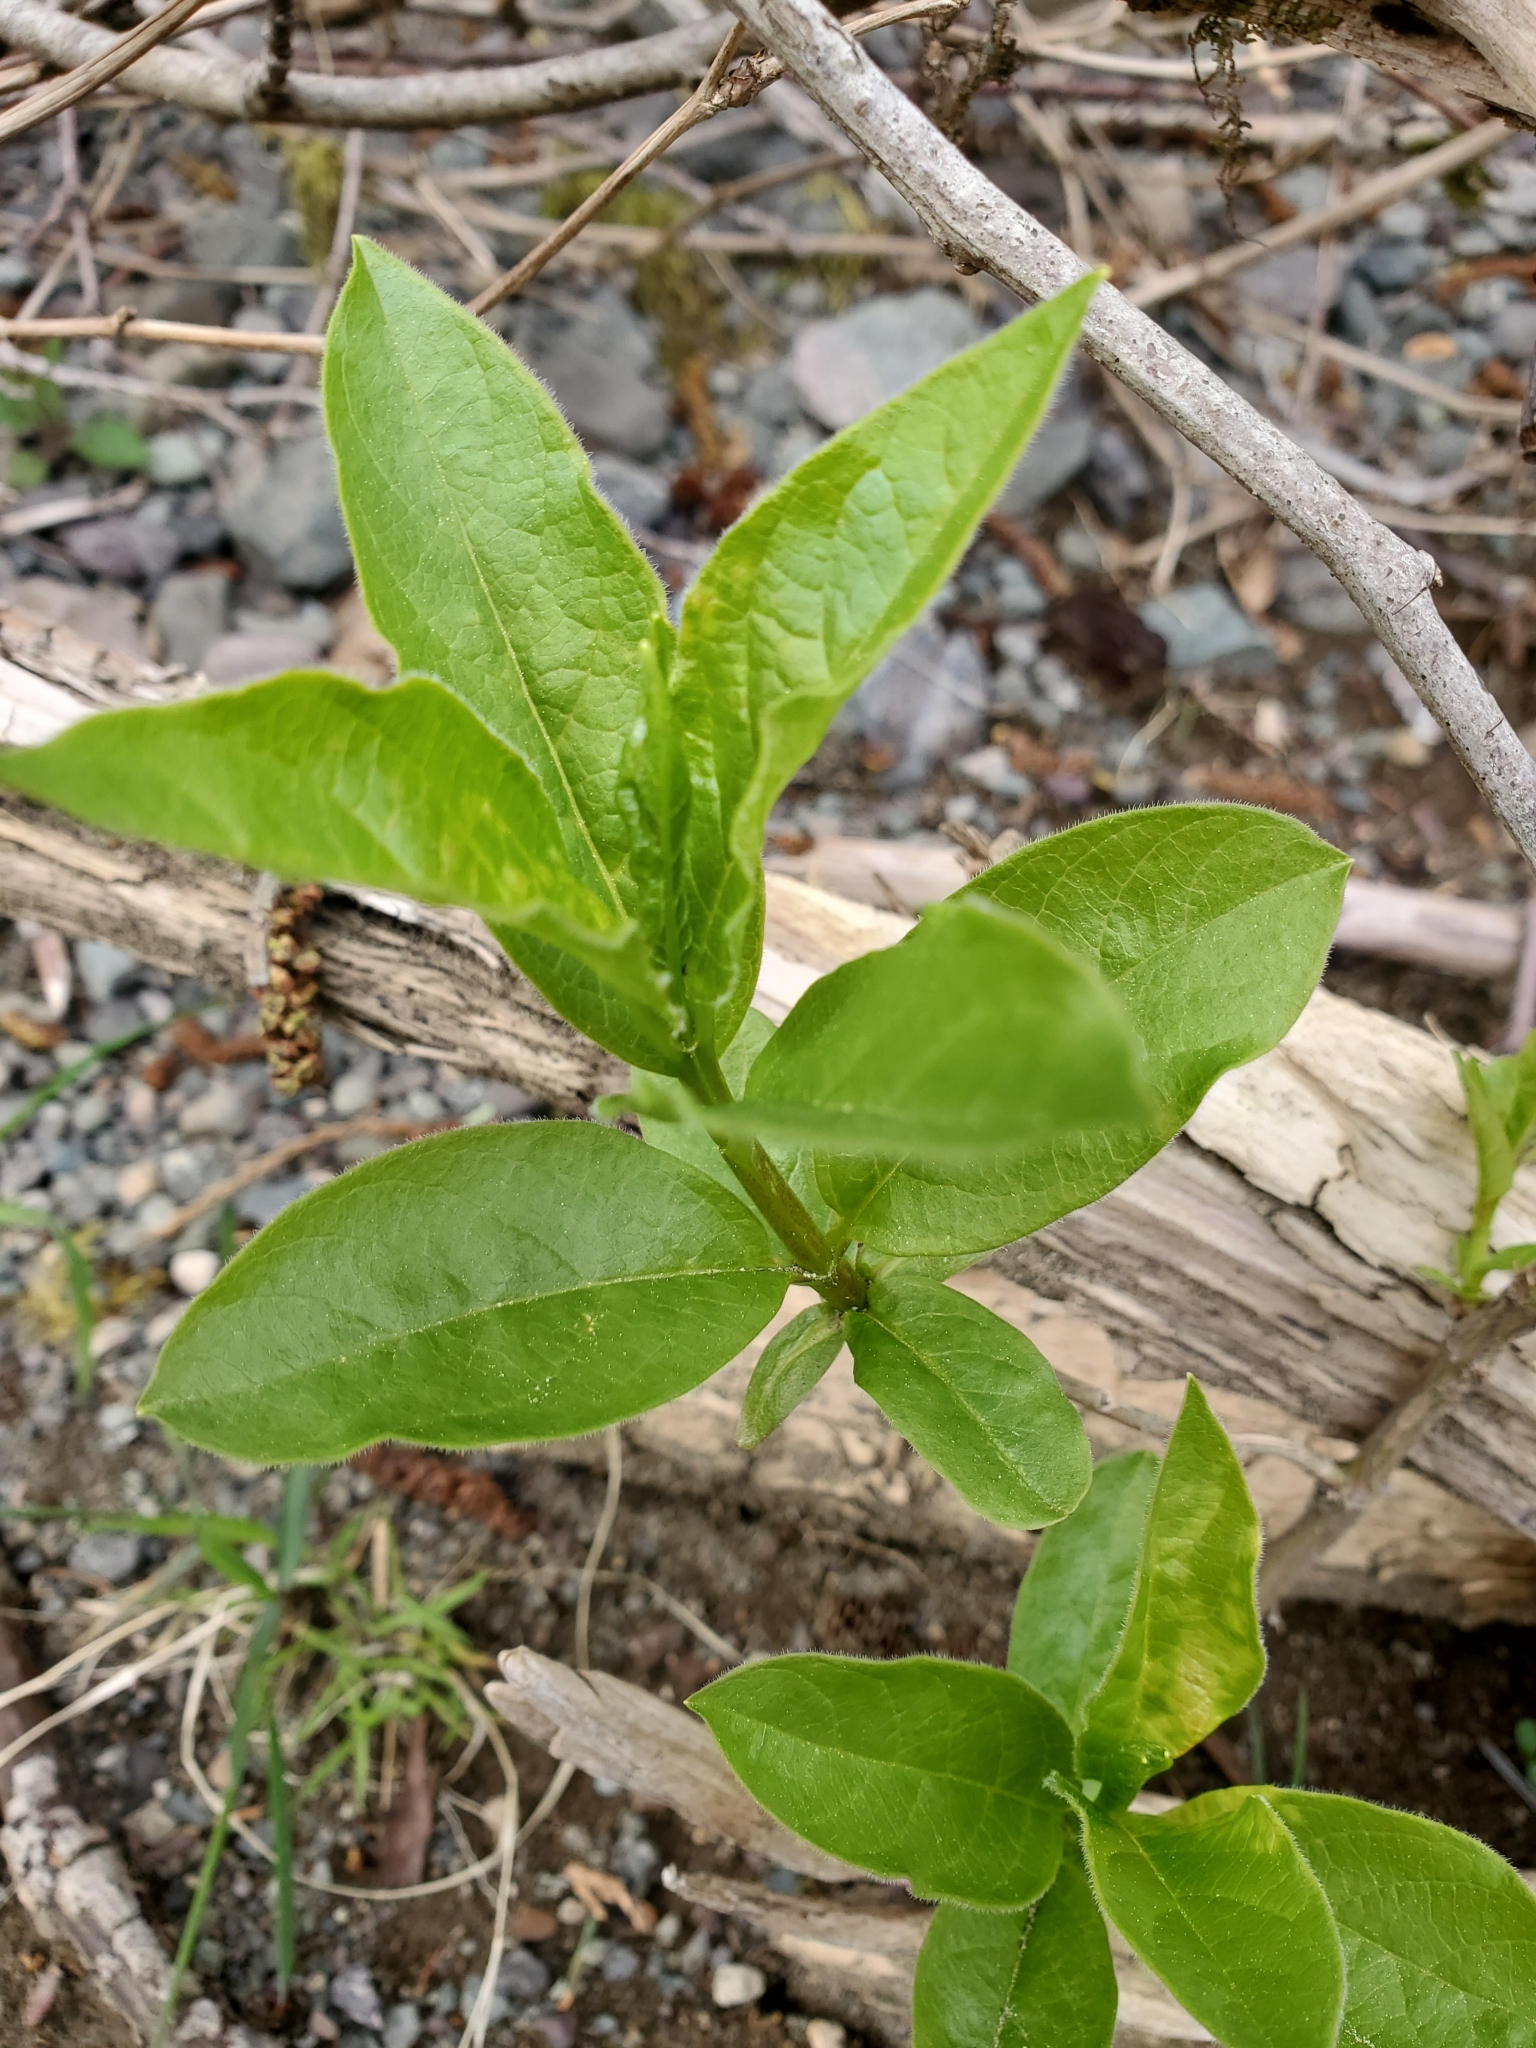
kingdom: Plantae
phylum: Tracheophyta
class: Magnoliopsida
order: Dipsacales
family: Caprifoliaceae
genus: Lonicera
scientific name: Lonicera involucrata
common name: Californian honeysuckle
